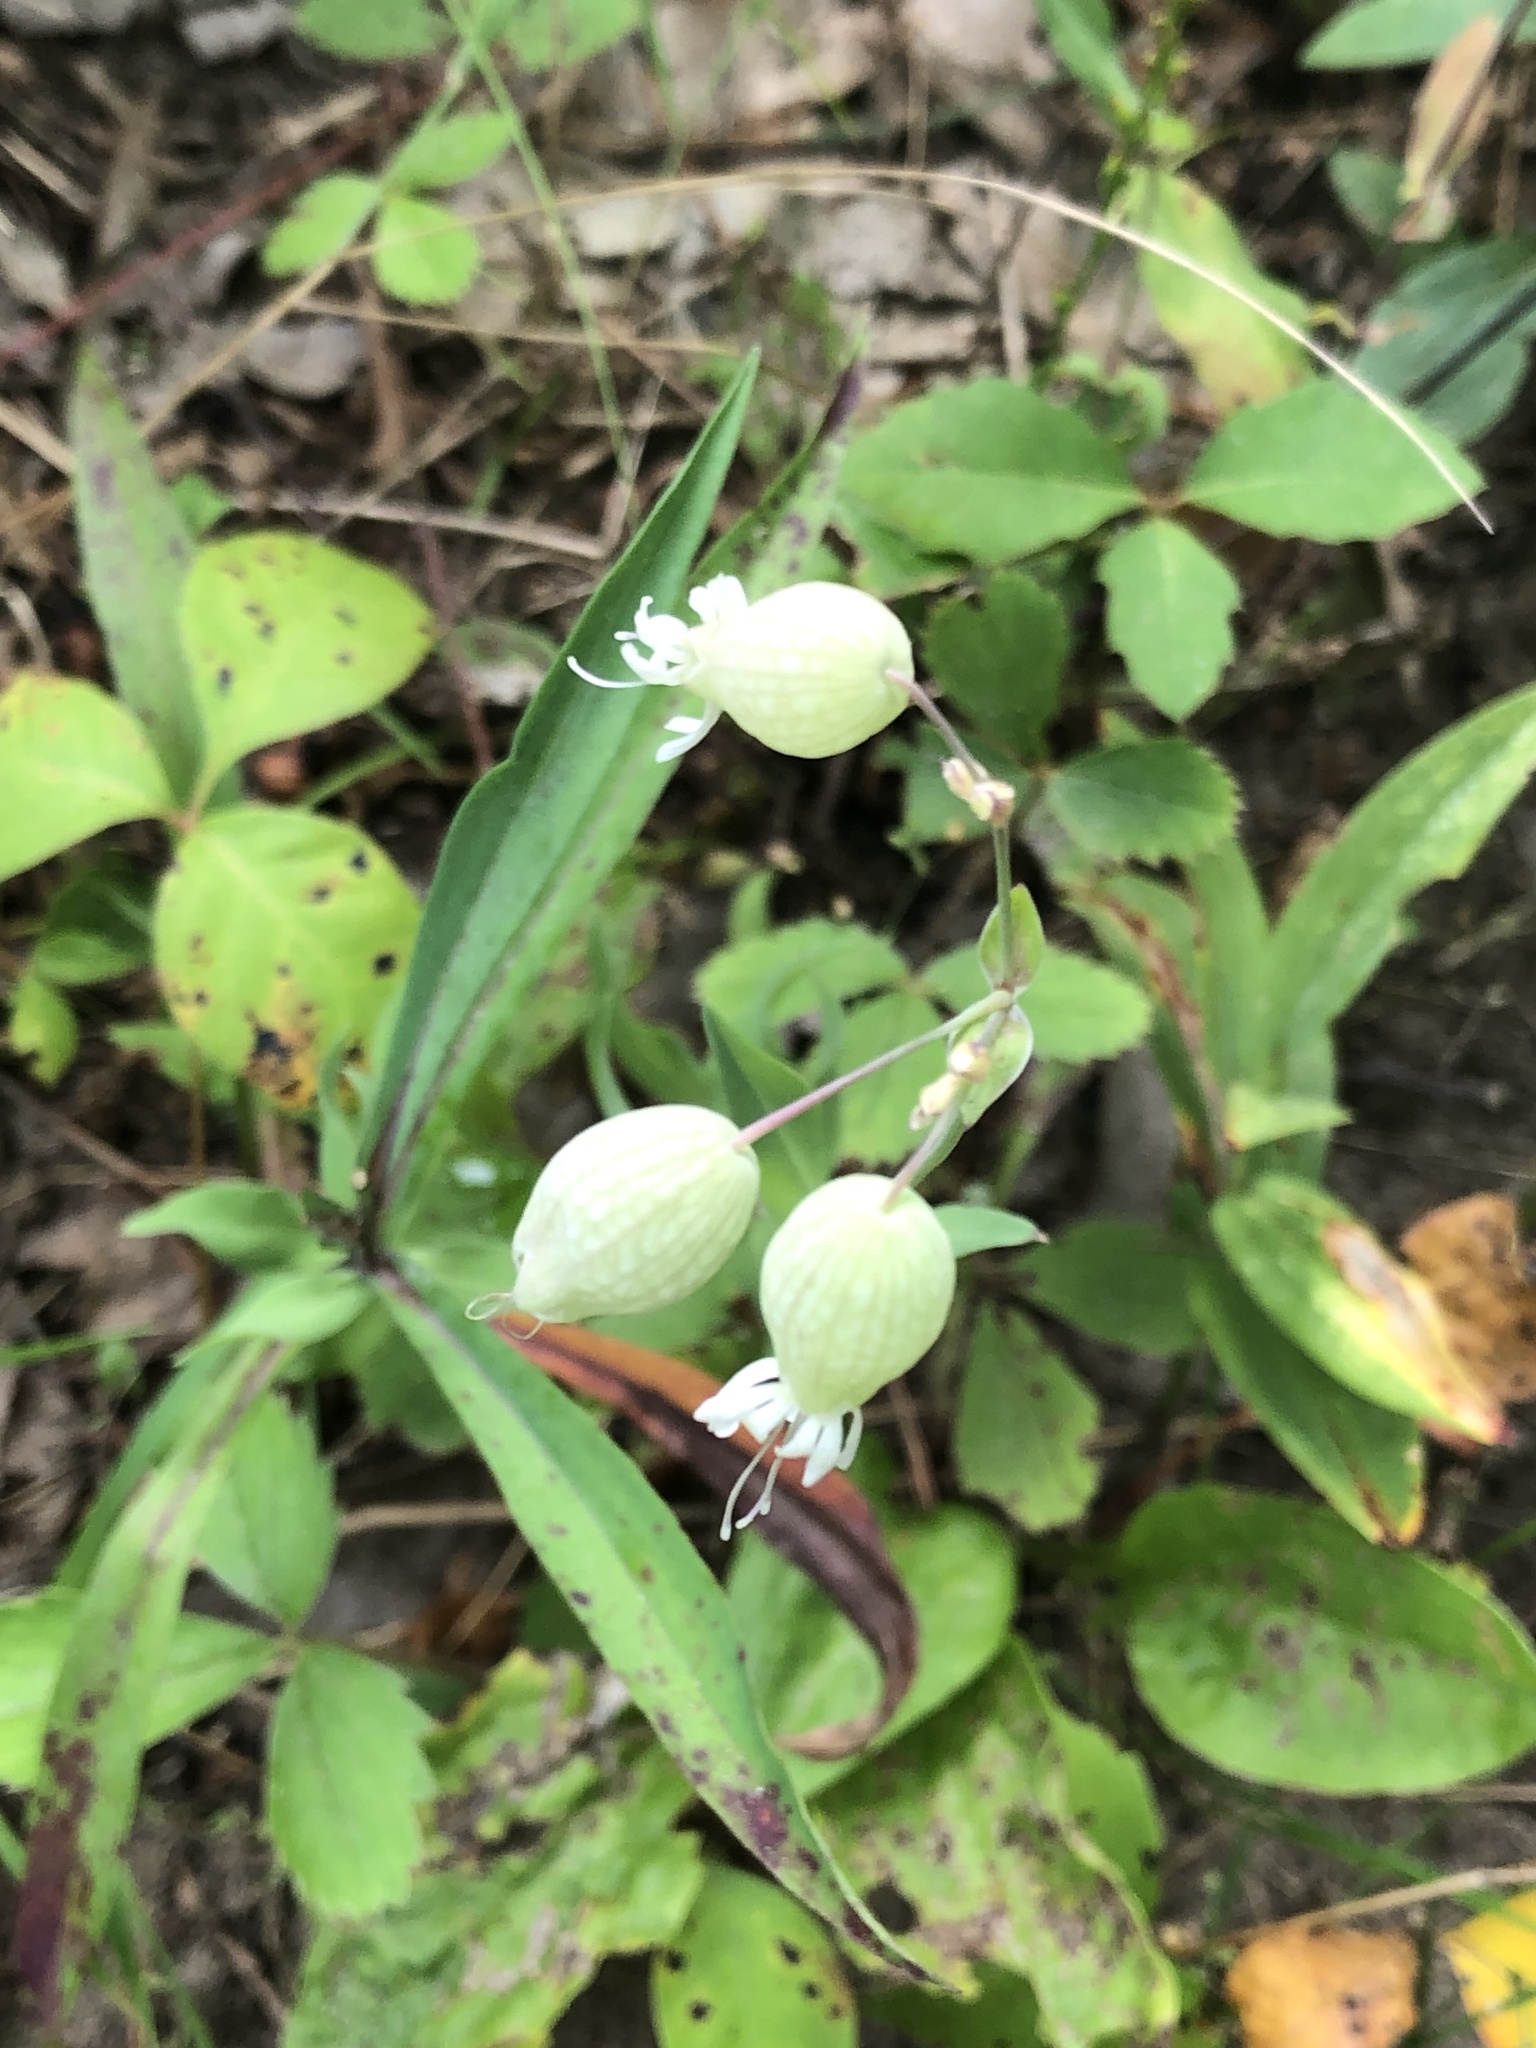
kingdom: Plantae
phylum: Tracheophyta
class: Magnoliopsida
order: Caryophyllales
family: Caryophyllaceae
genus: Silene
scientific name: Silene vulgaris
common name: Bladder campion
